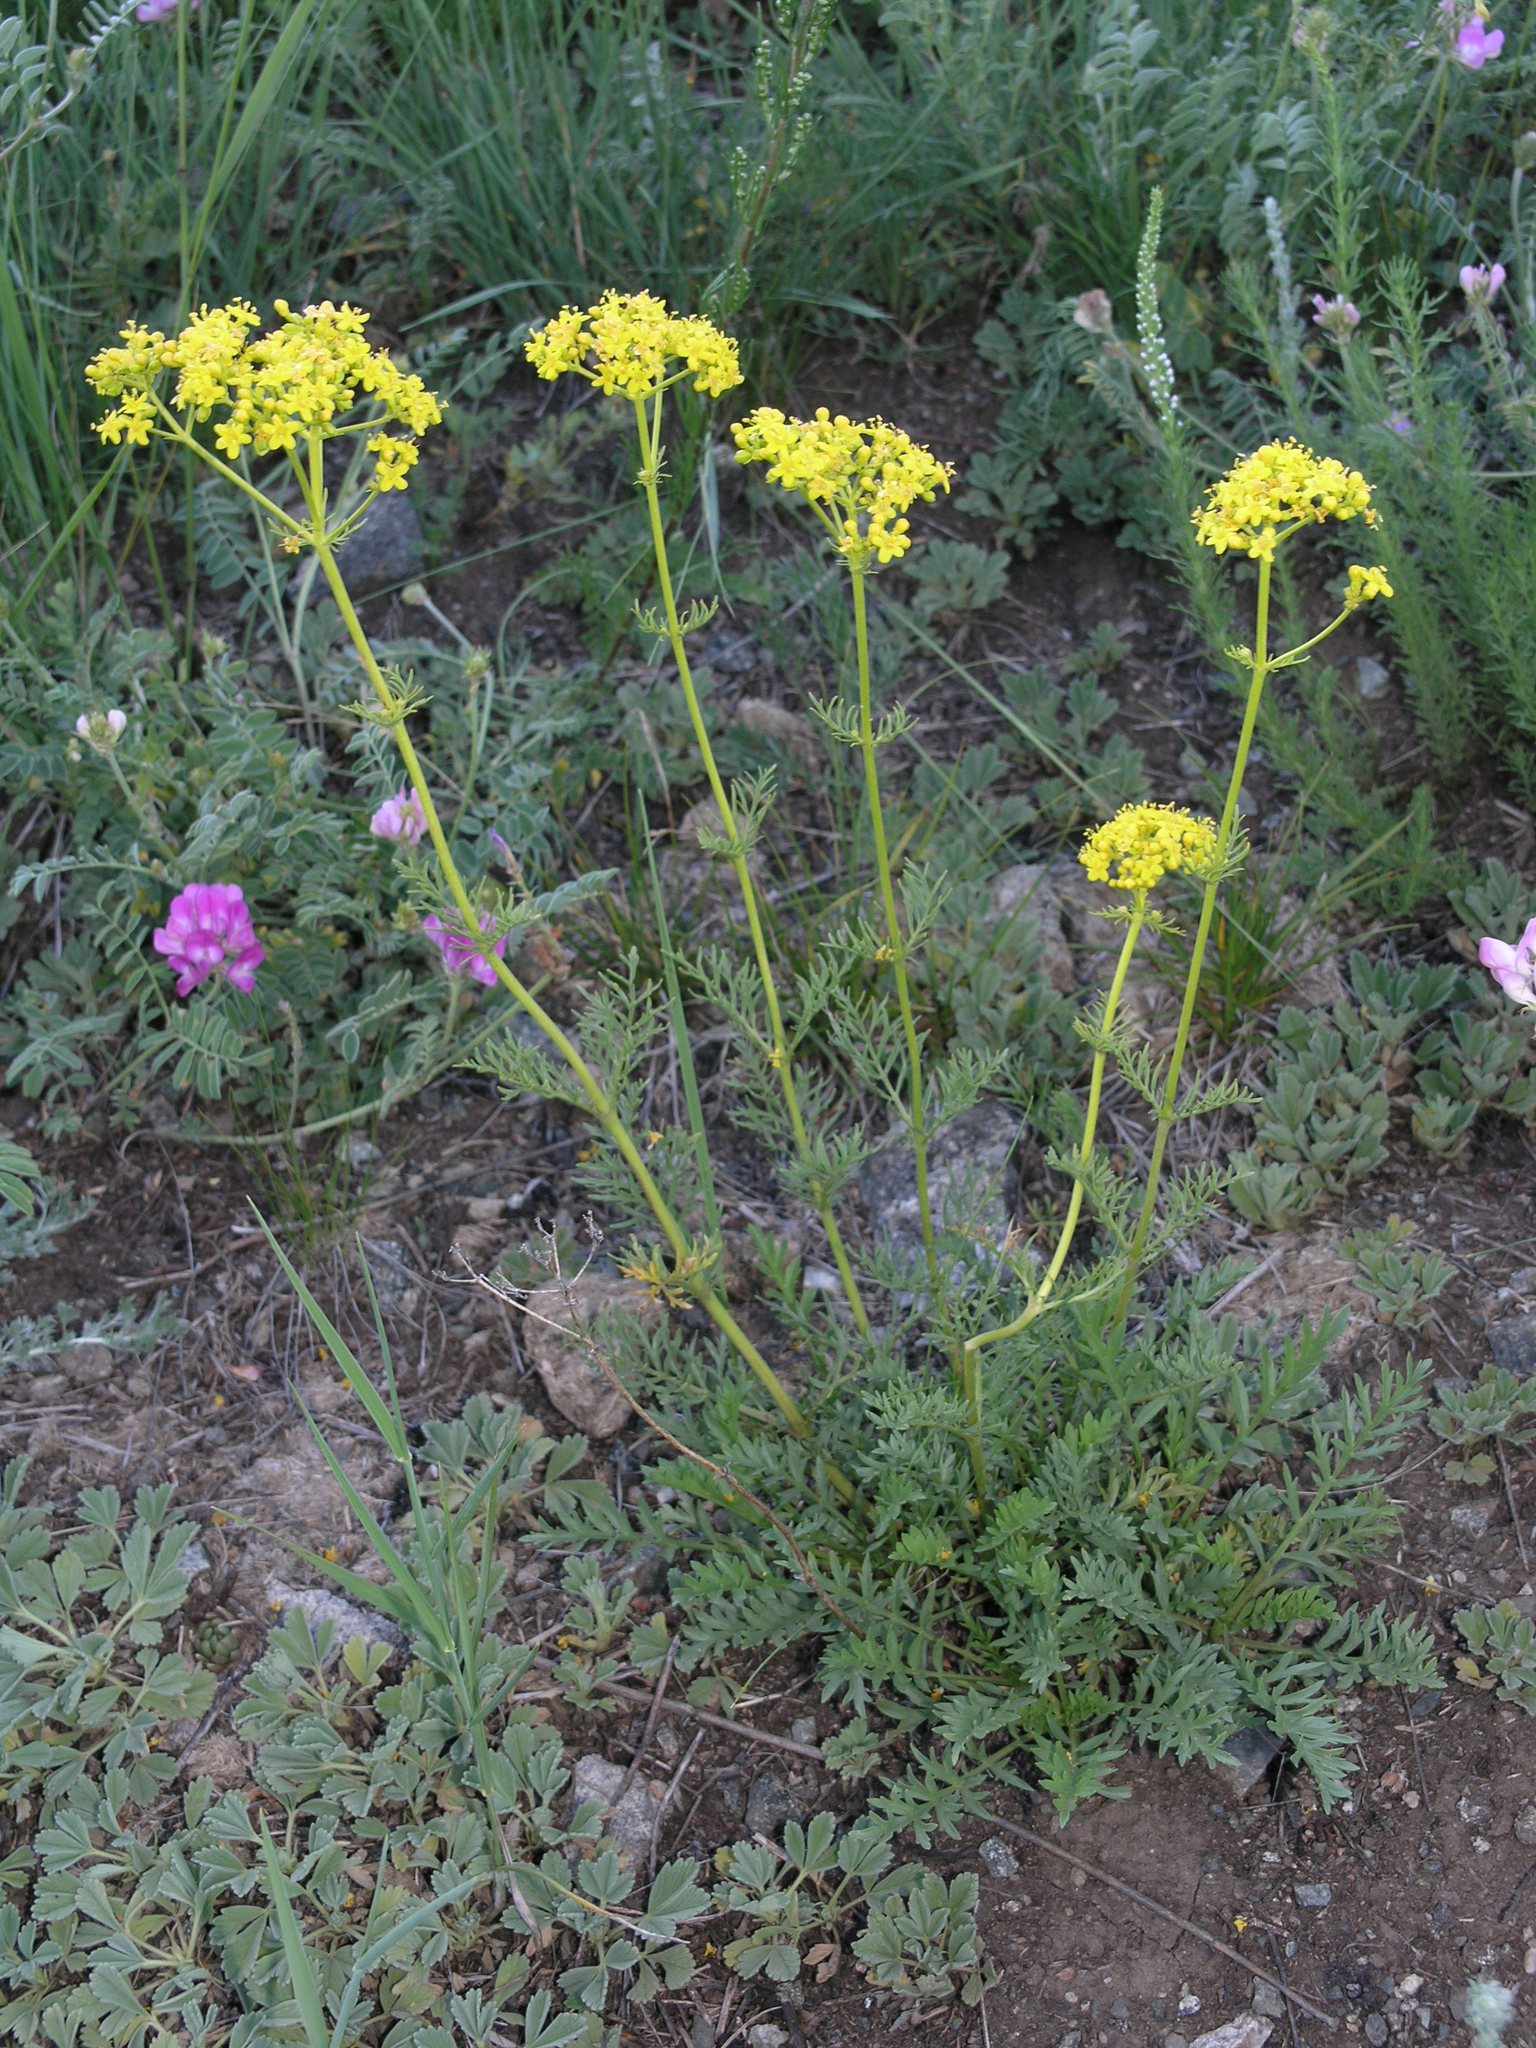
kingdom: Plantae
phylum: Tracheophyta
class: Magnoliopsida
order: Dipsacales
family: Caprifoliaceae
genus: Patrinia
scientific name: Patrinia intermedia
